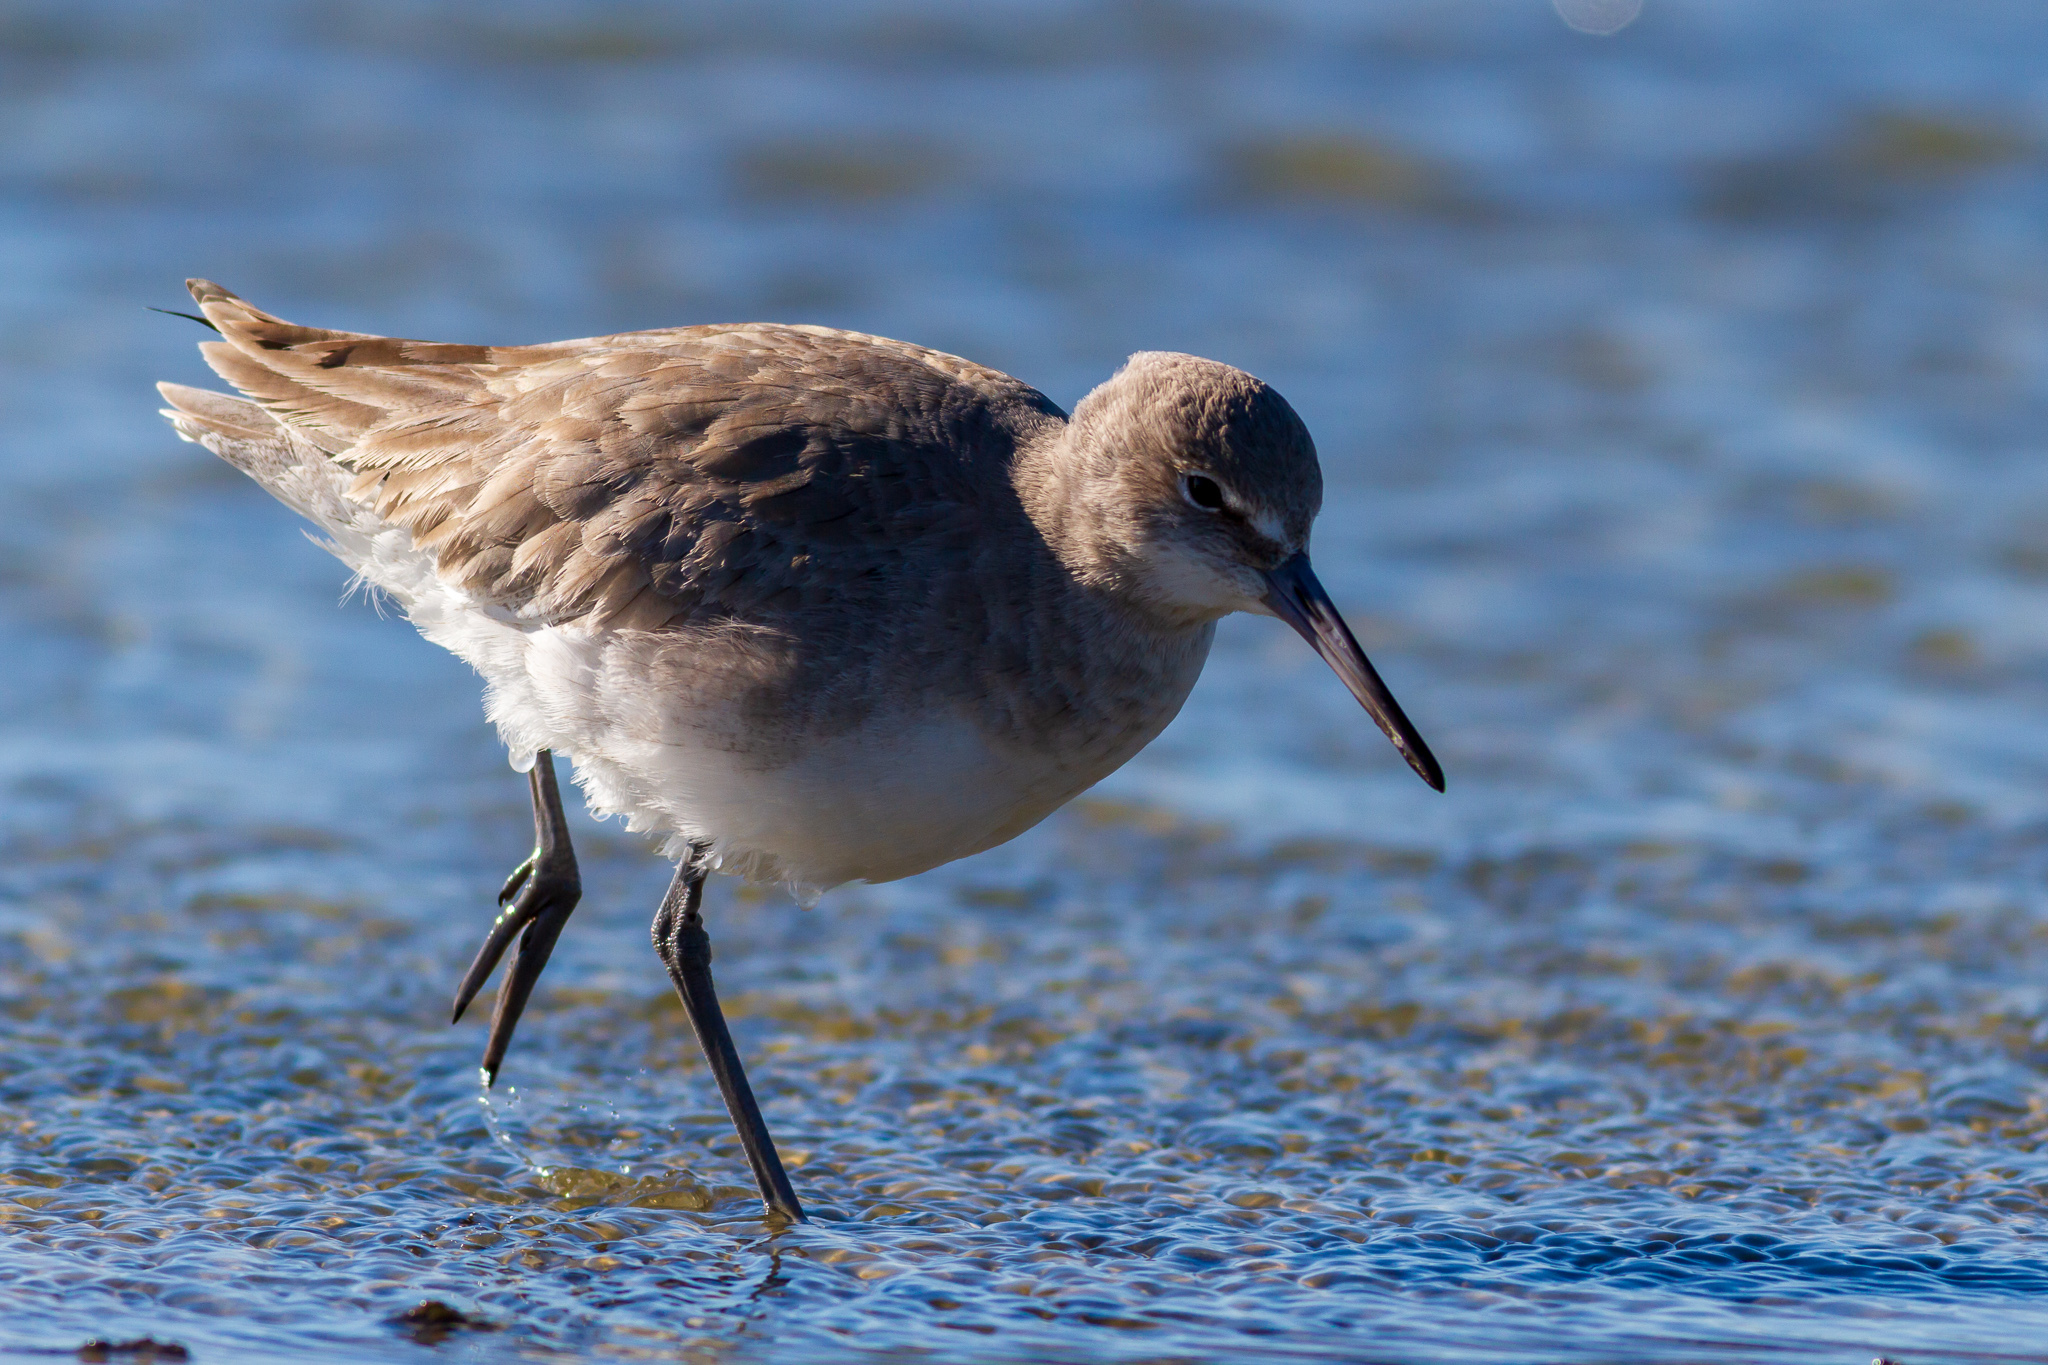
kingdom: Animalia
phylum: Chordata
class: Aves
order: Charadriiformes
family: Scolopacidae
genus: Tringa
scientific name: Tringa semipalmata
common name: Willet
